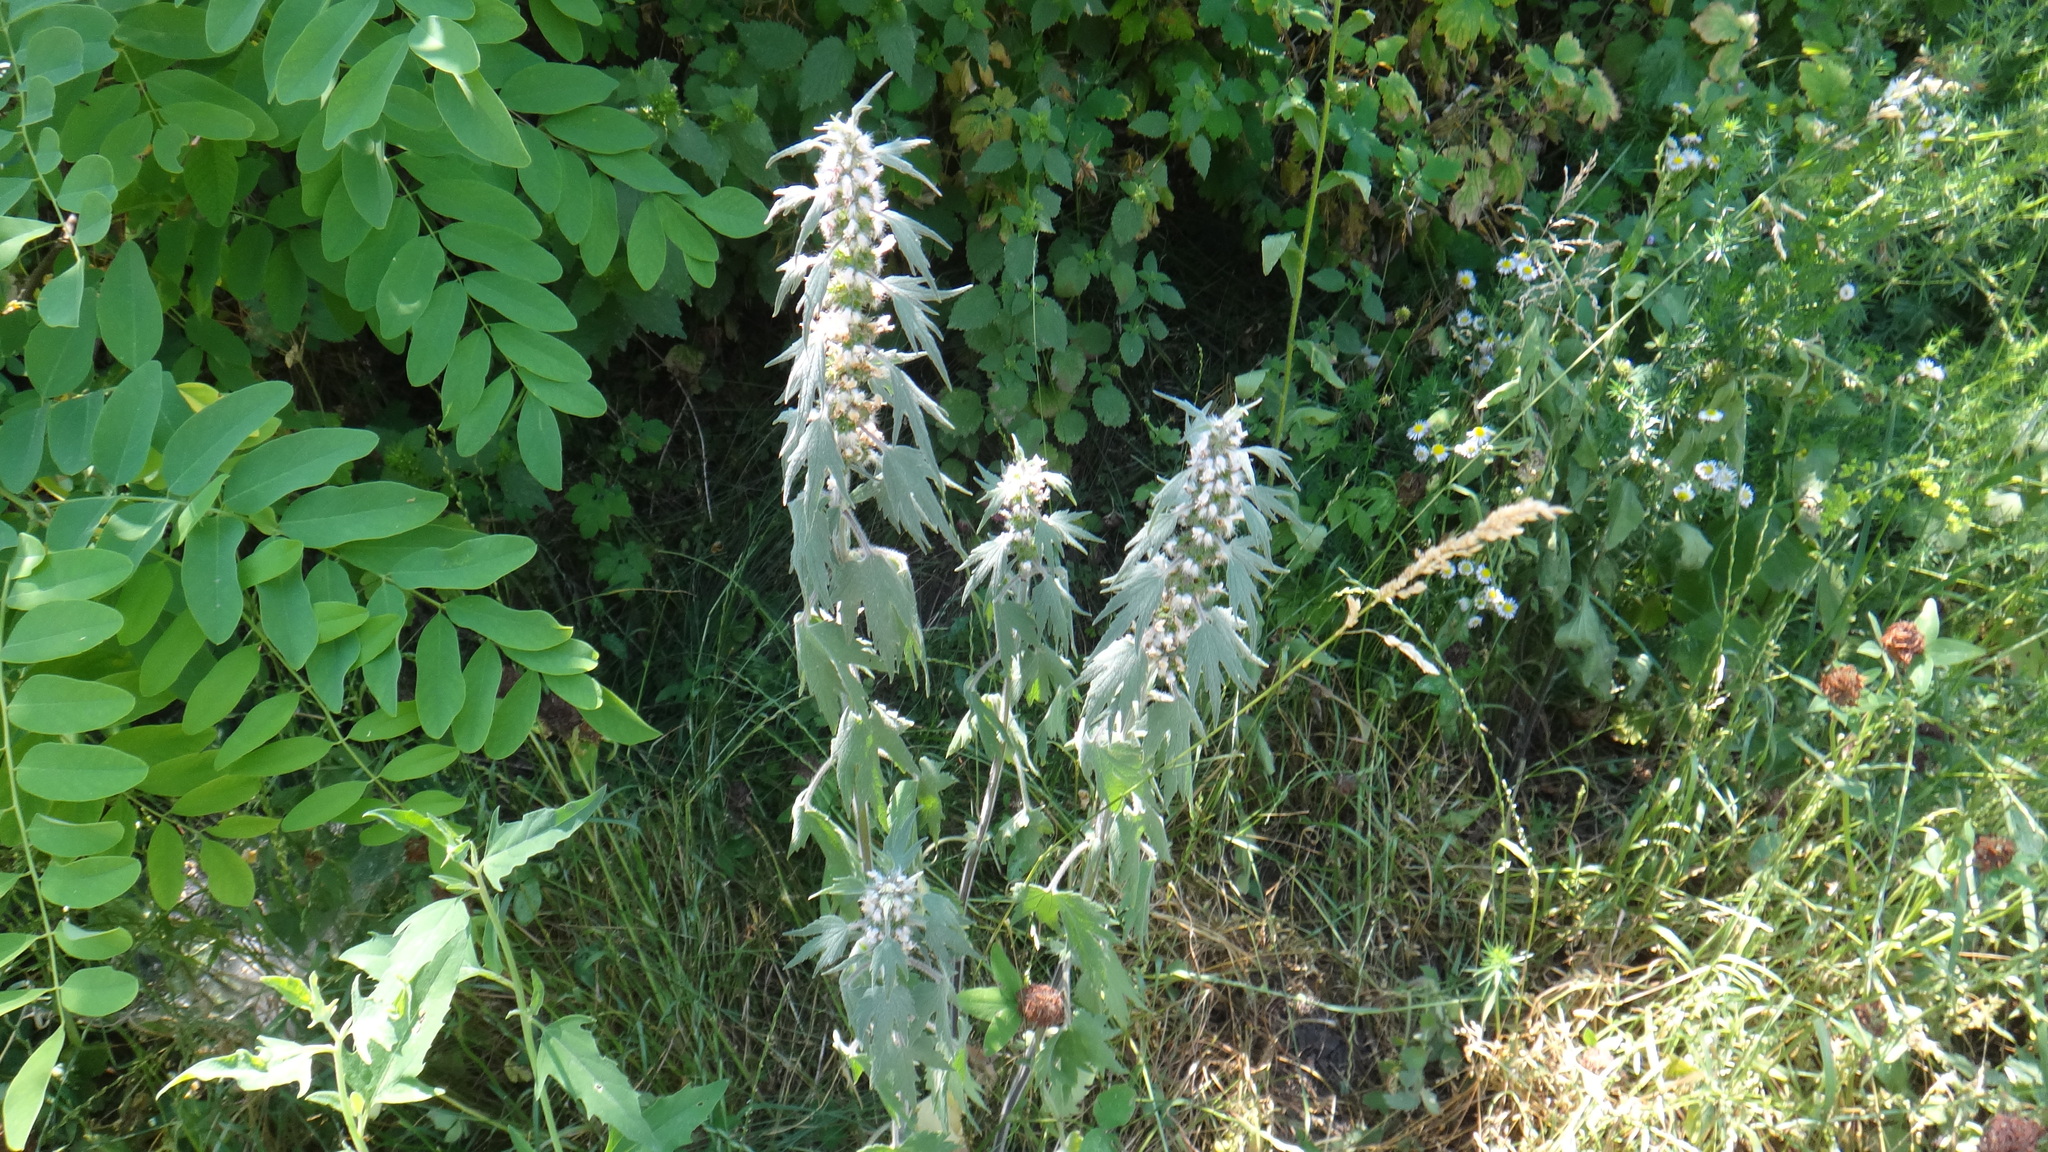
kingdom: Plantae
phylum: Tracheophyta
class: Magnoliopsida
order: Lamiales
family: Lamiaceae
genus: Leonurus
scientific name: Leonurus quinquelobatus
